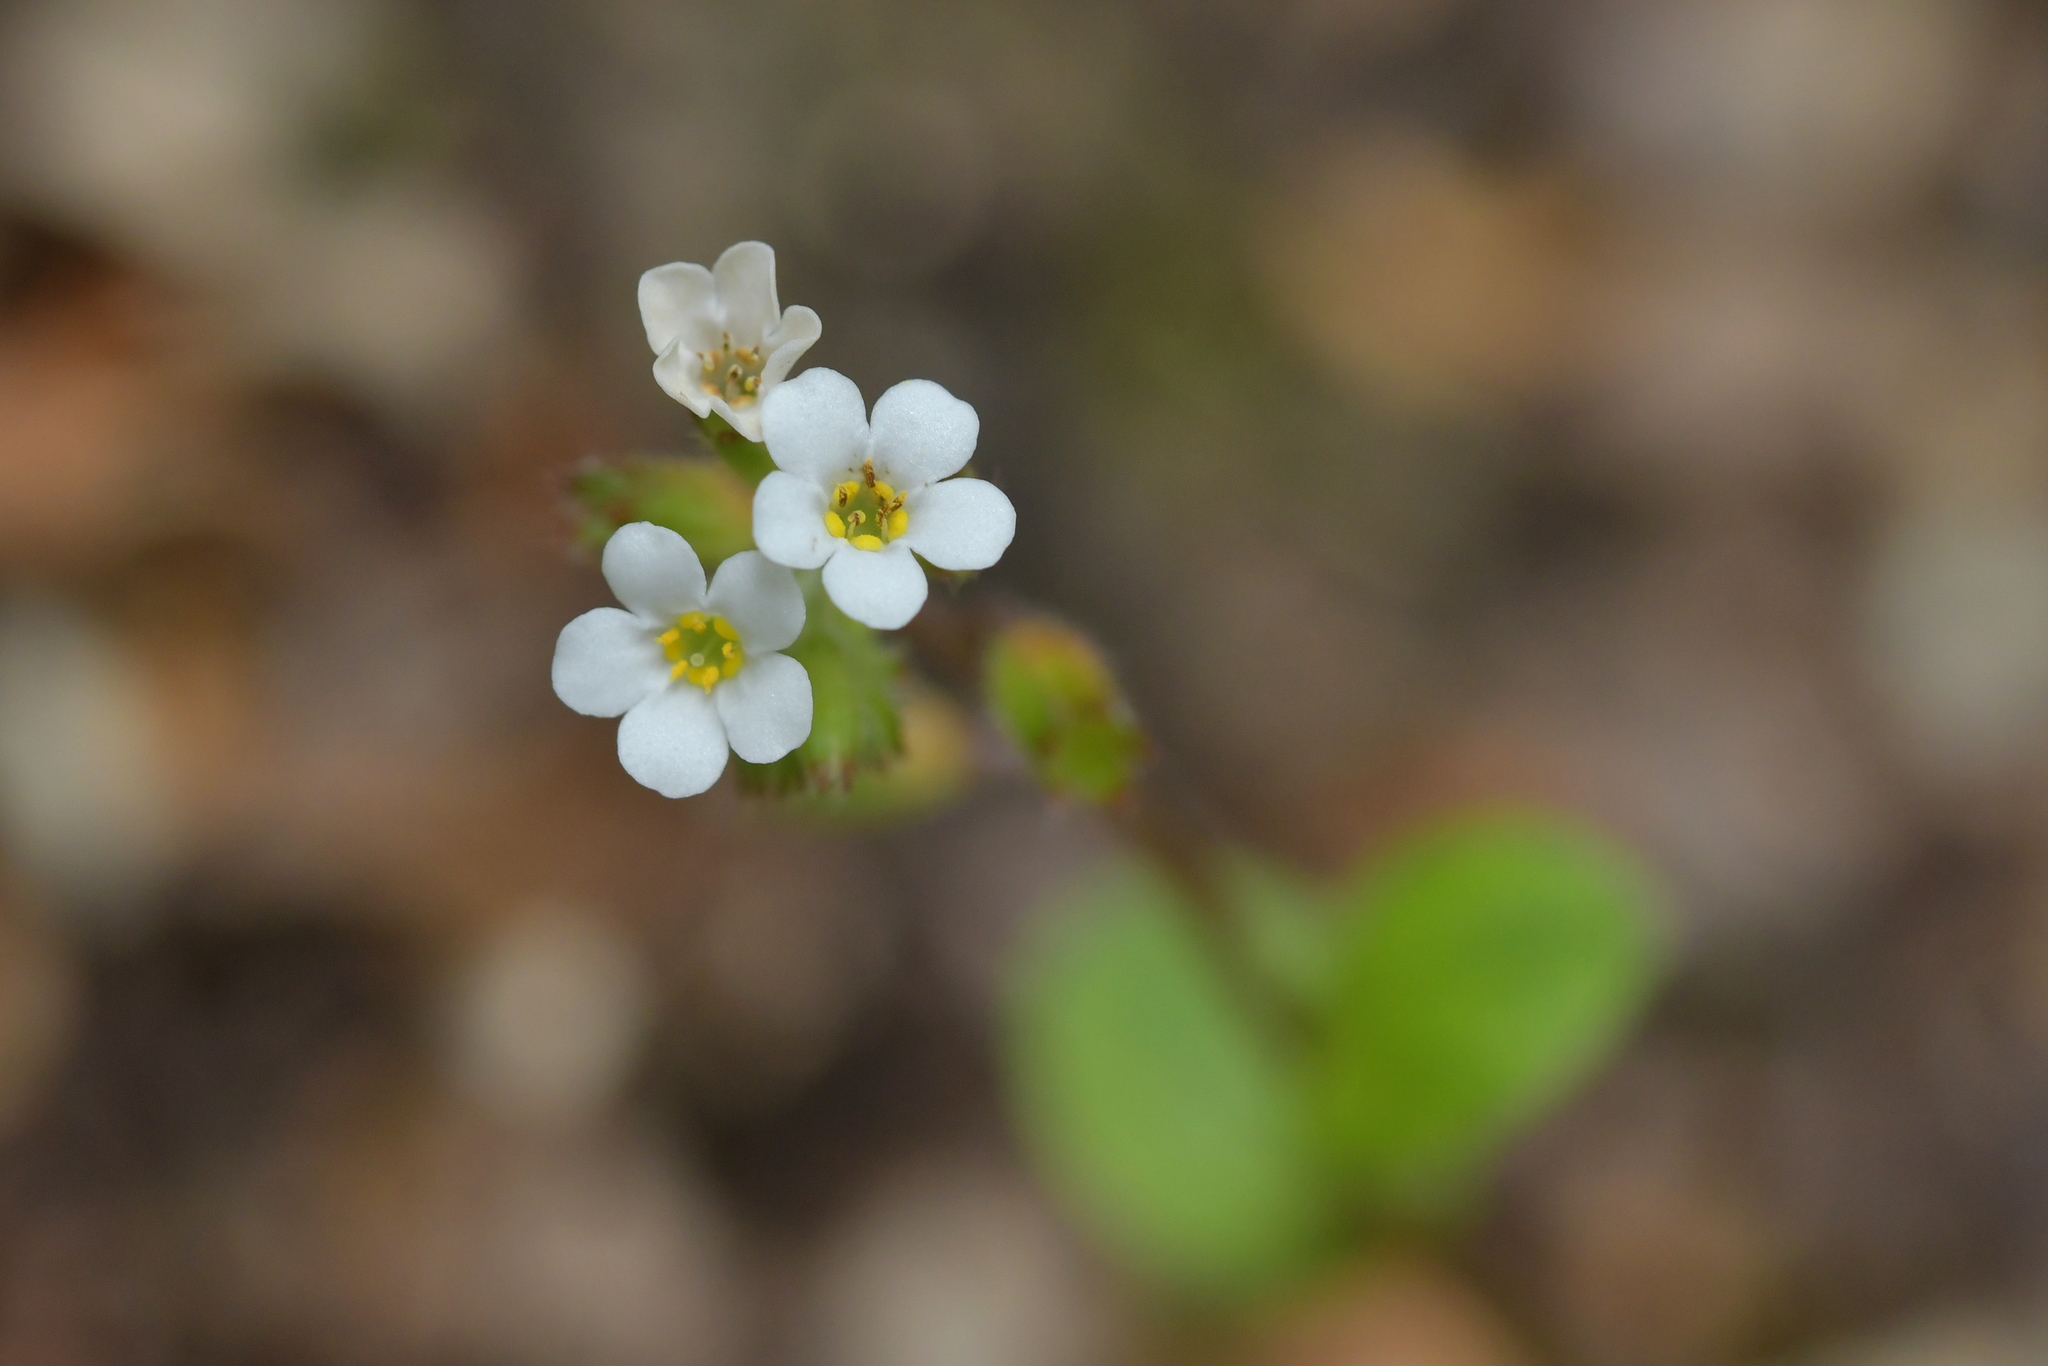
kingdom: Plantae
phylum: Tracheophyta
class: Magnoliopsida
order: Boraginales
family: Boraginaceae
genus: Myosotis
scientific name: Myosotis forsteri
